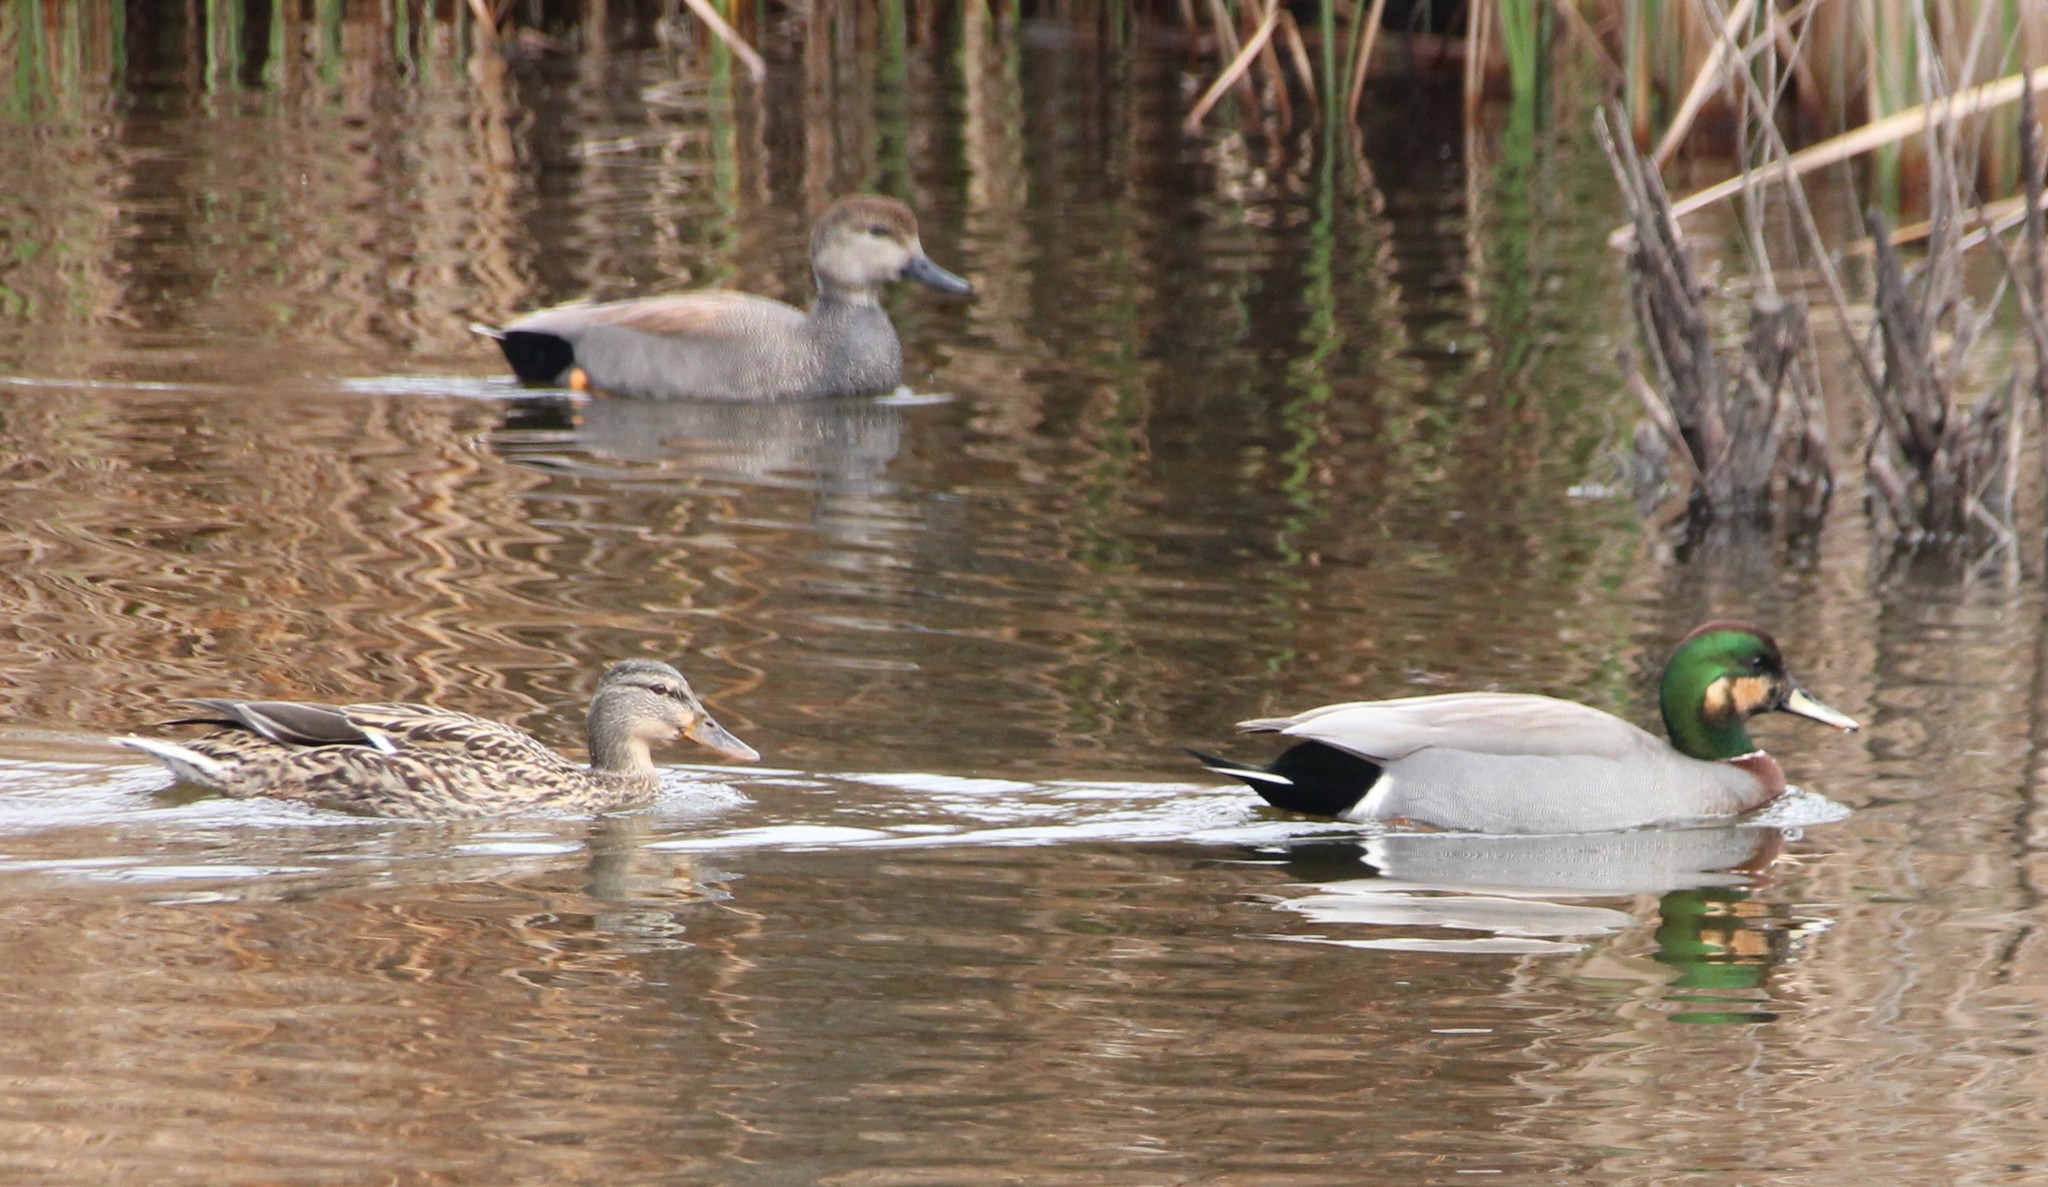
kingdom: Animalia
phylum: Chordata
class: Aves
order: Anseriformes
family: Anatidae
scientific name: Anatidae
